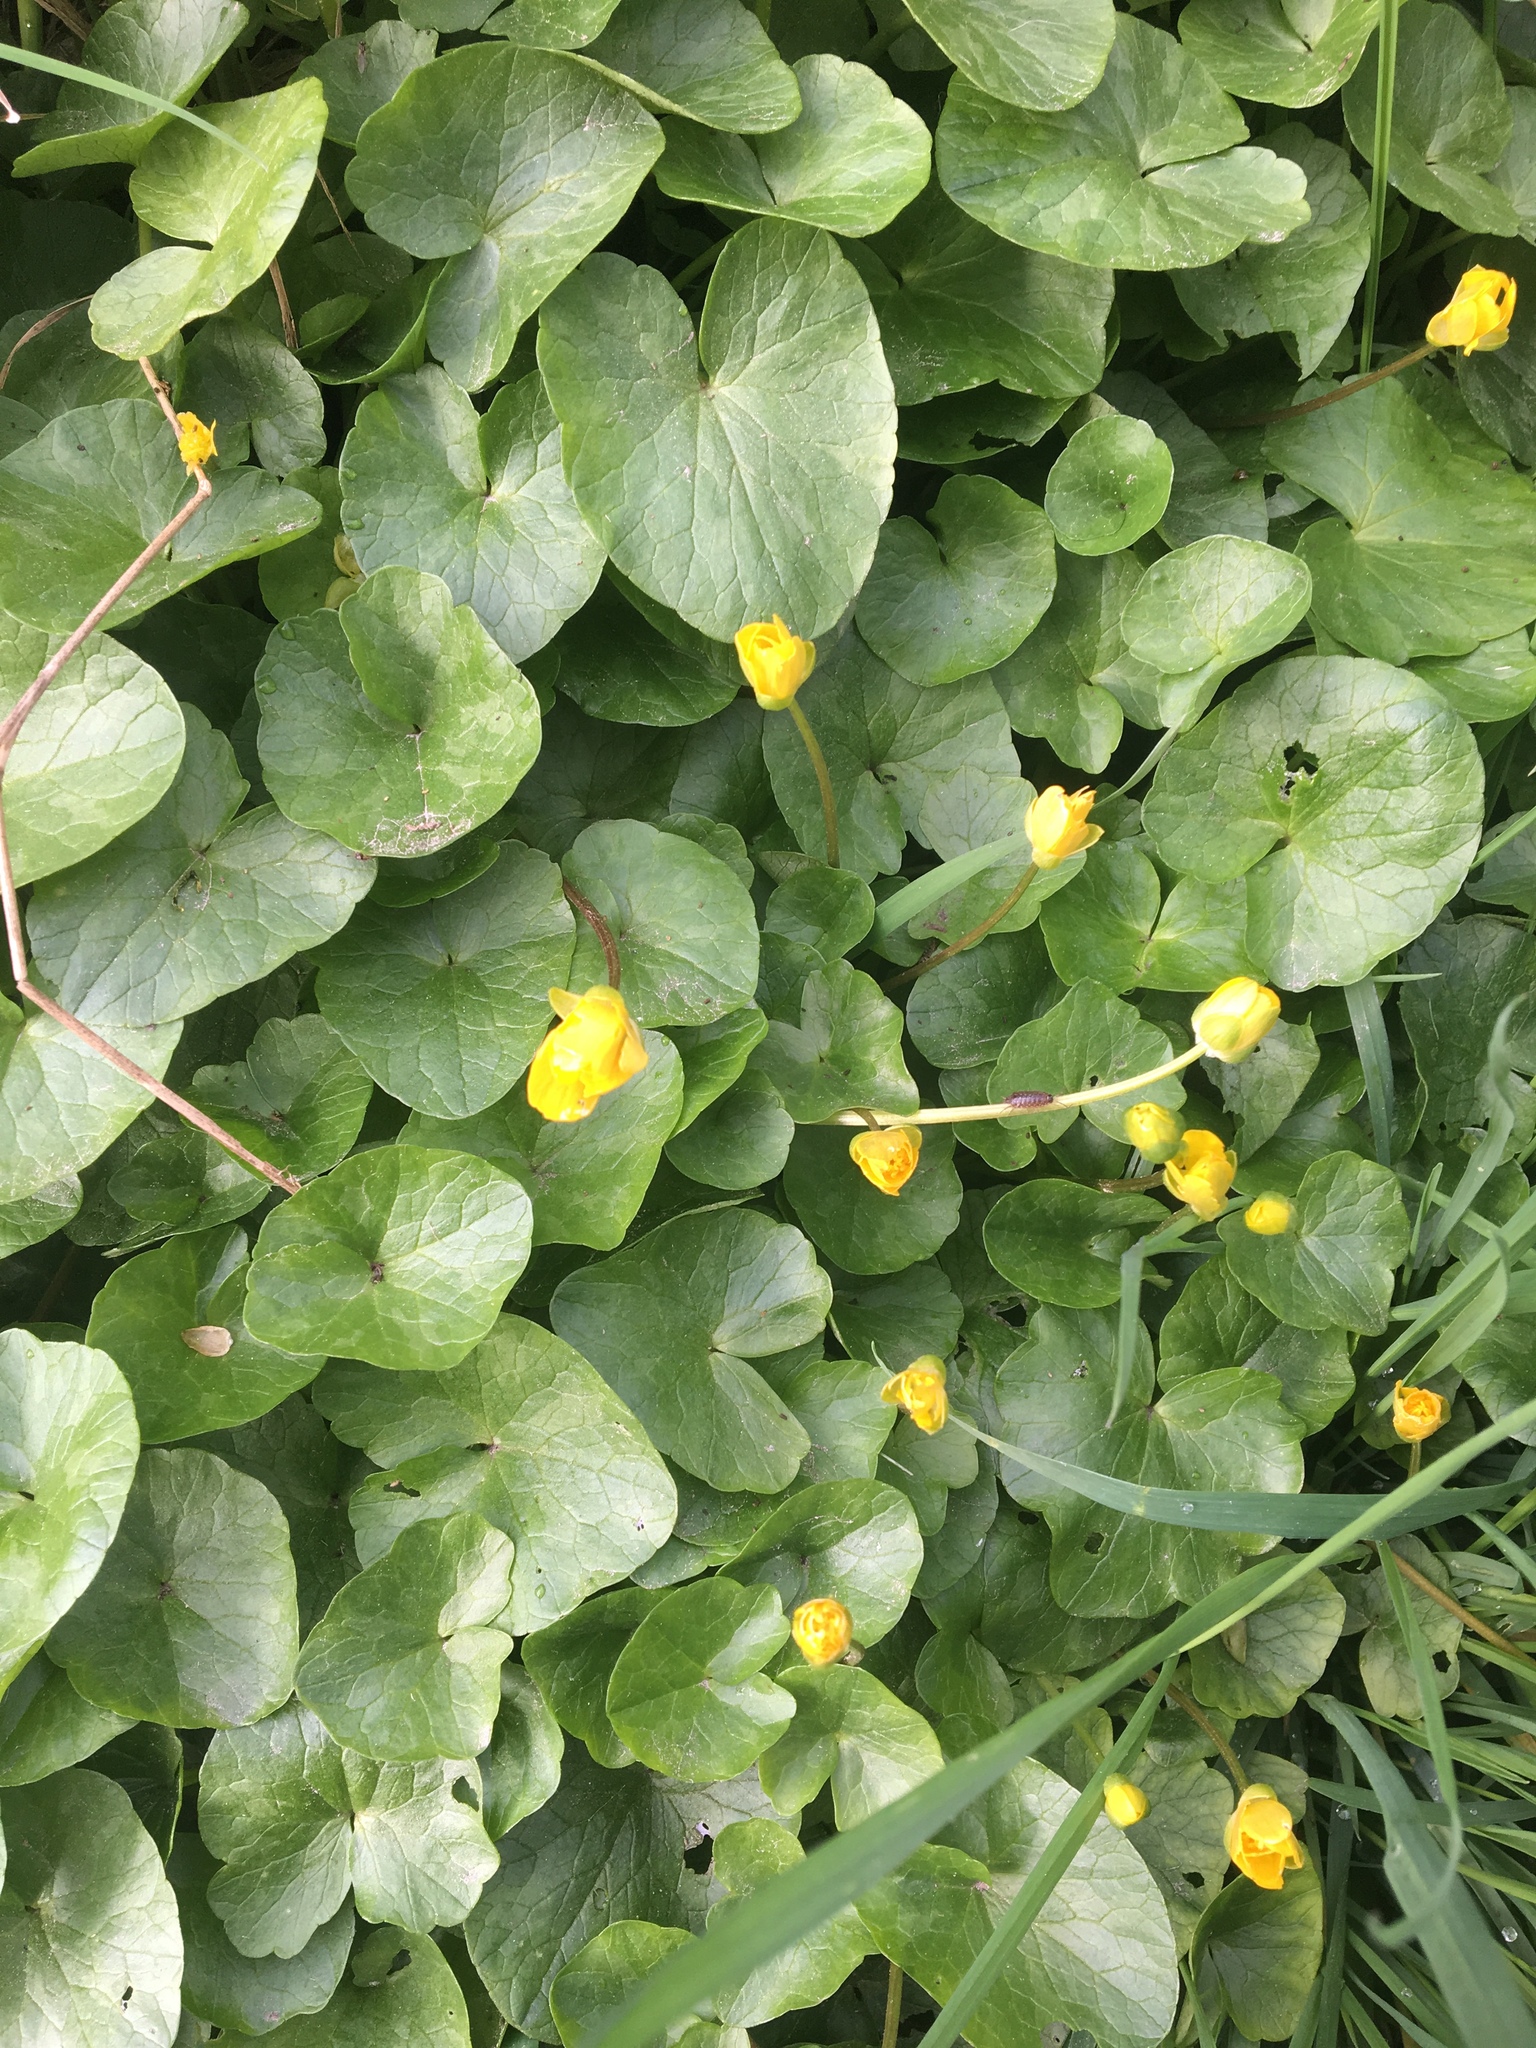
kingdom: Plantae
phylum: Tracheophyta
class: Magnoliopsida
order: Ranunculales
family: Ranunculaceae
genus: Ficaria
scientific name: Ficaria verna
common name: Lesser celandine
